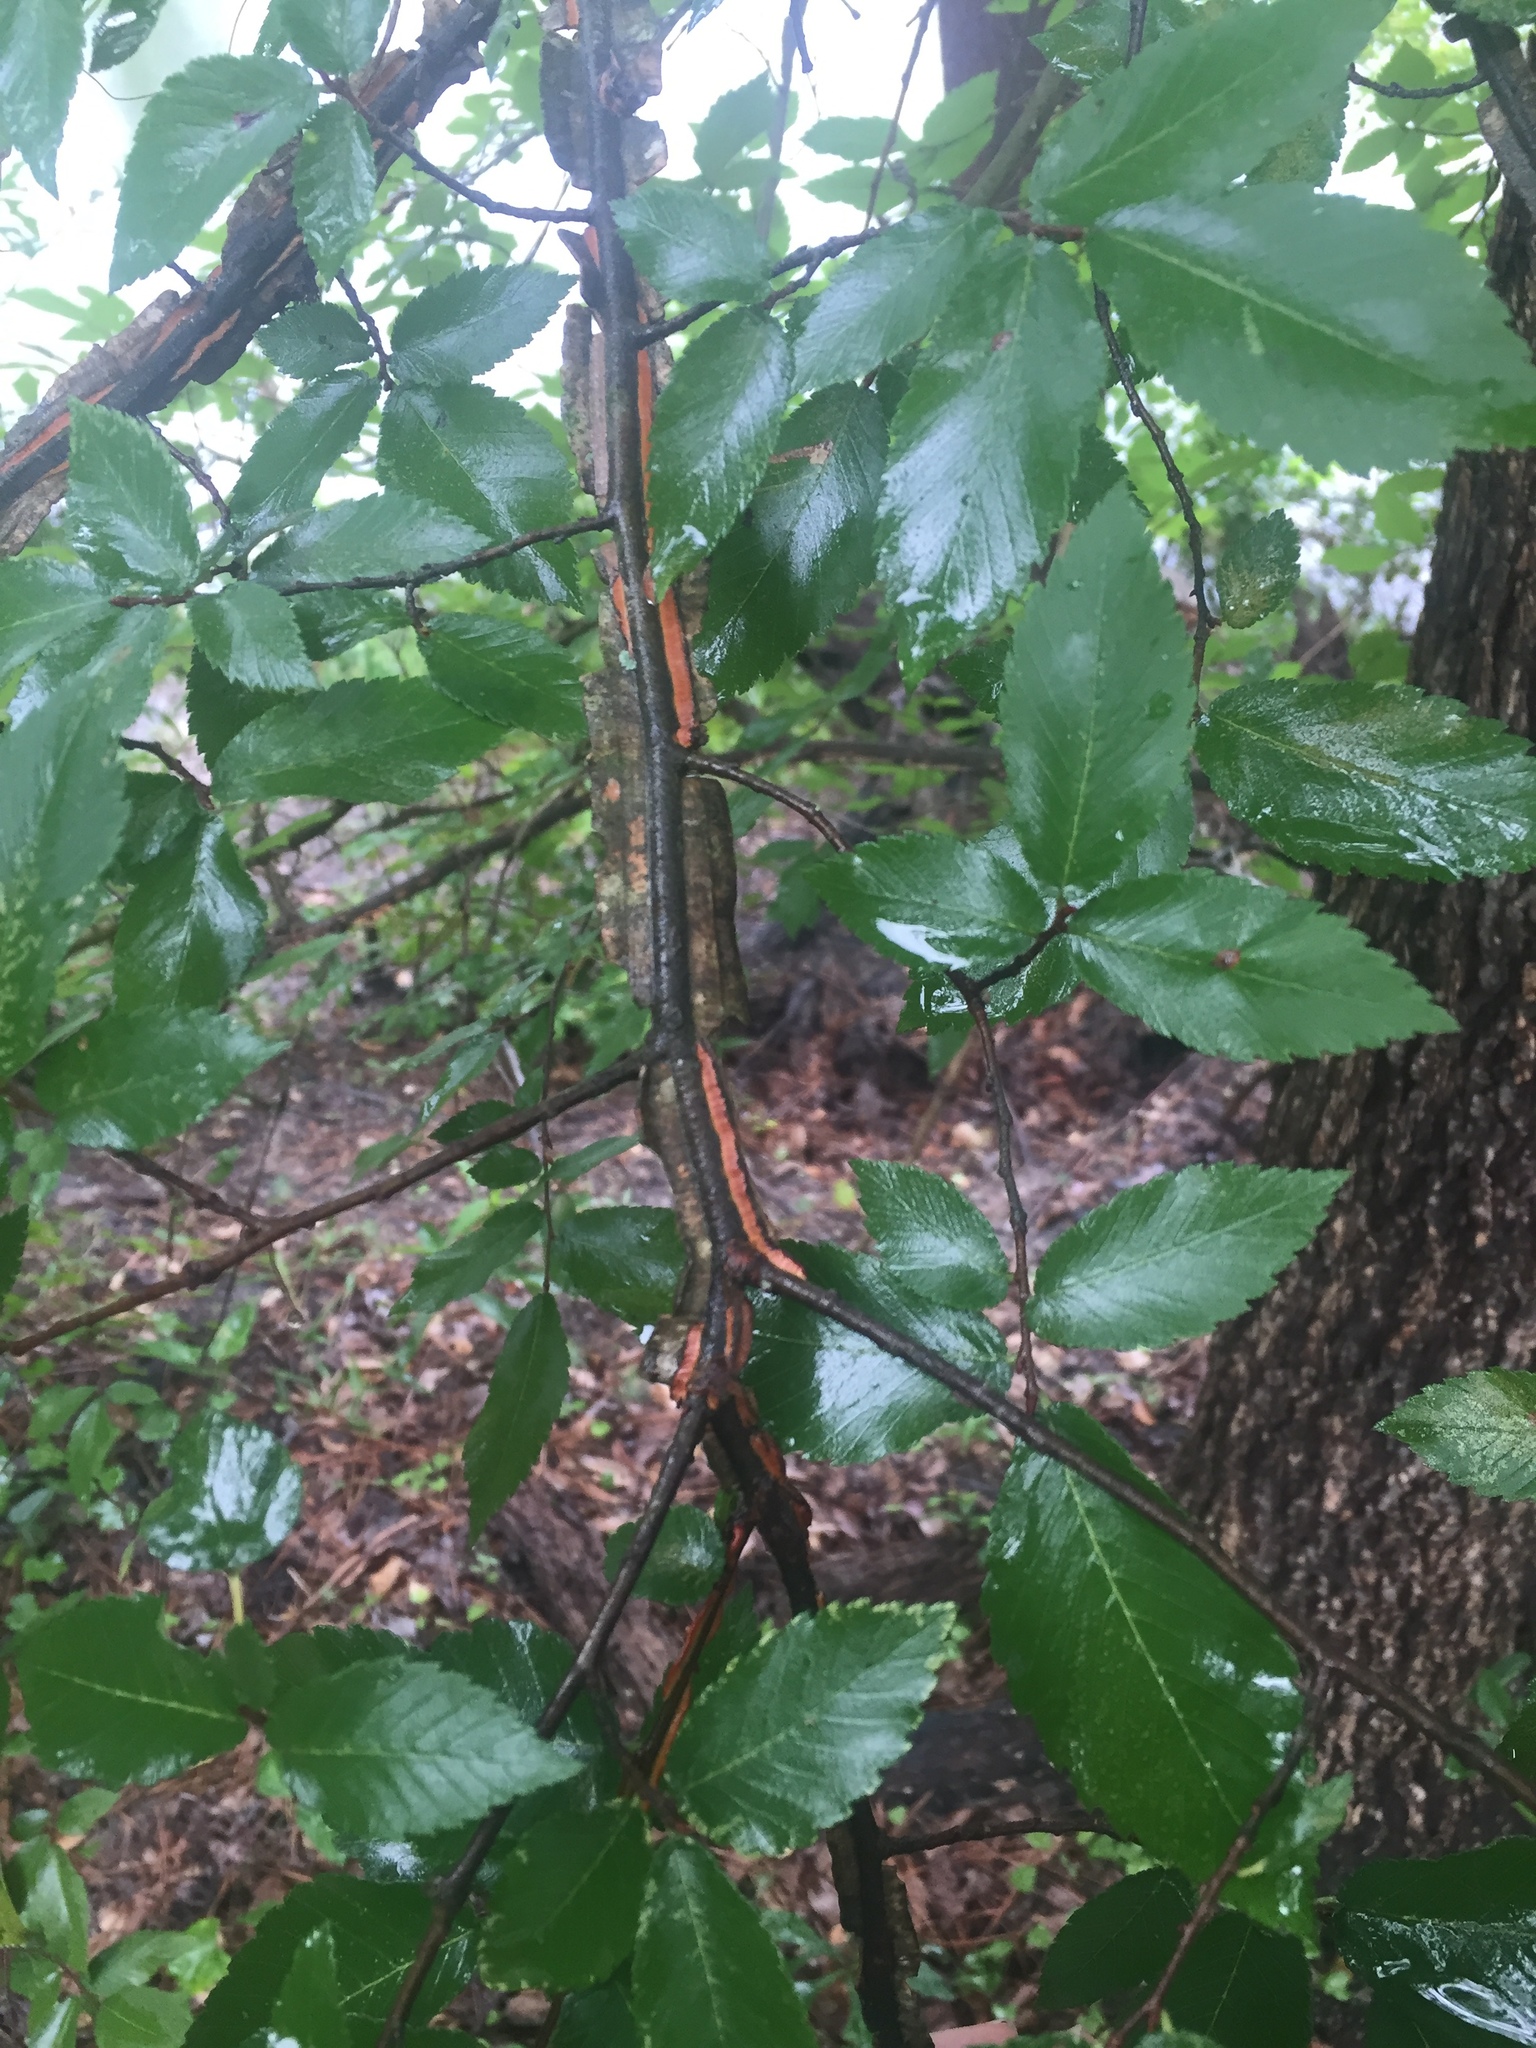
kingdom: Plantae
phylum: Tracheophyta
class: Magnoliopsida
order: Rosales
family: Ulmaceae
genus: Ulmus
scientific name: Ulmus alata
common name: Winged elm
